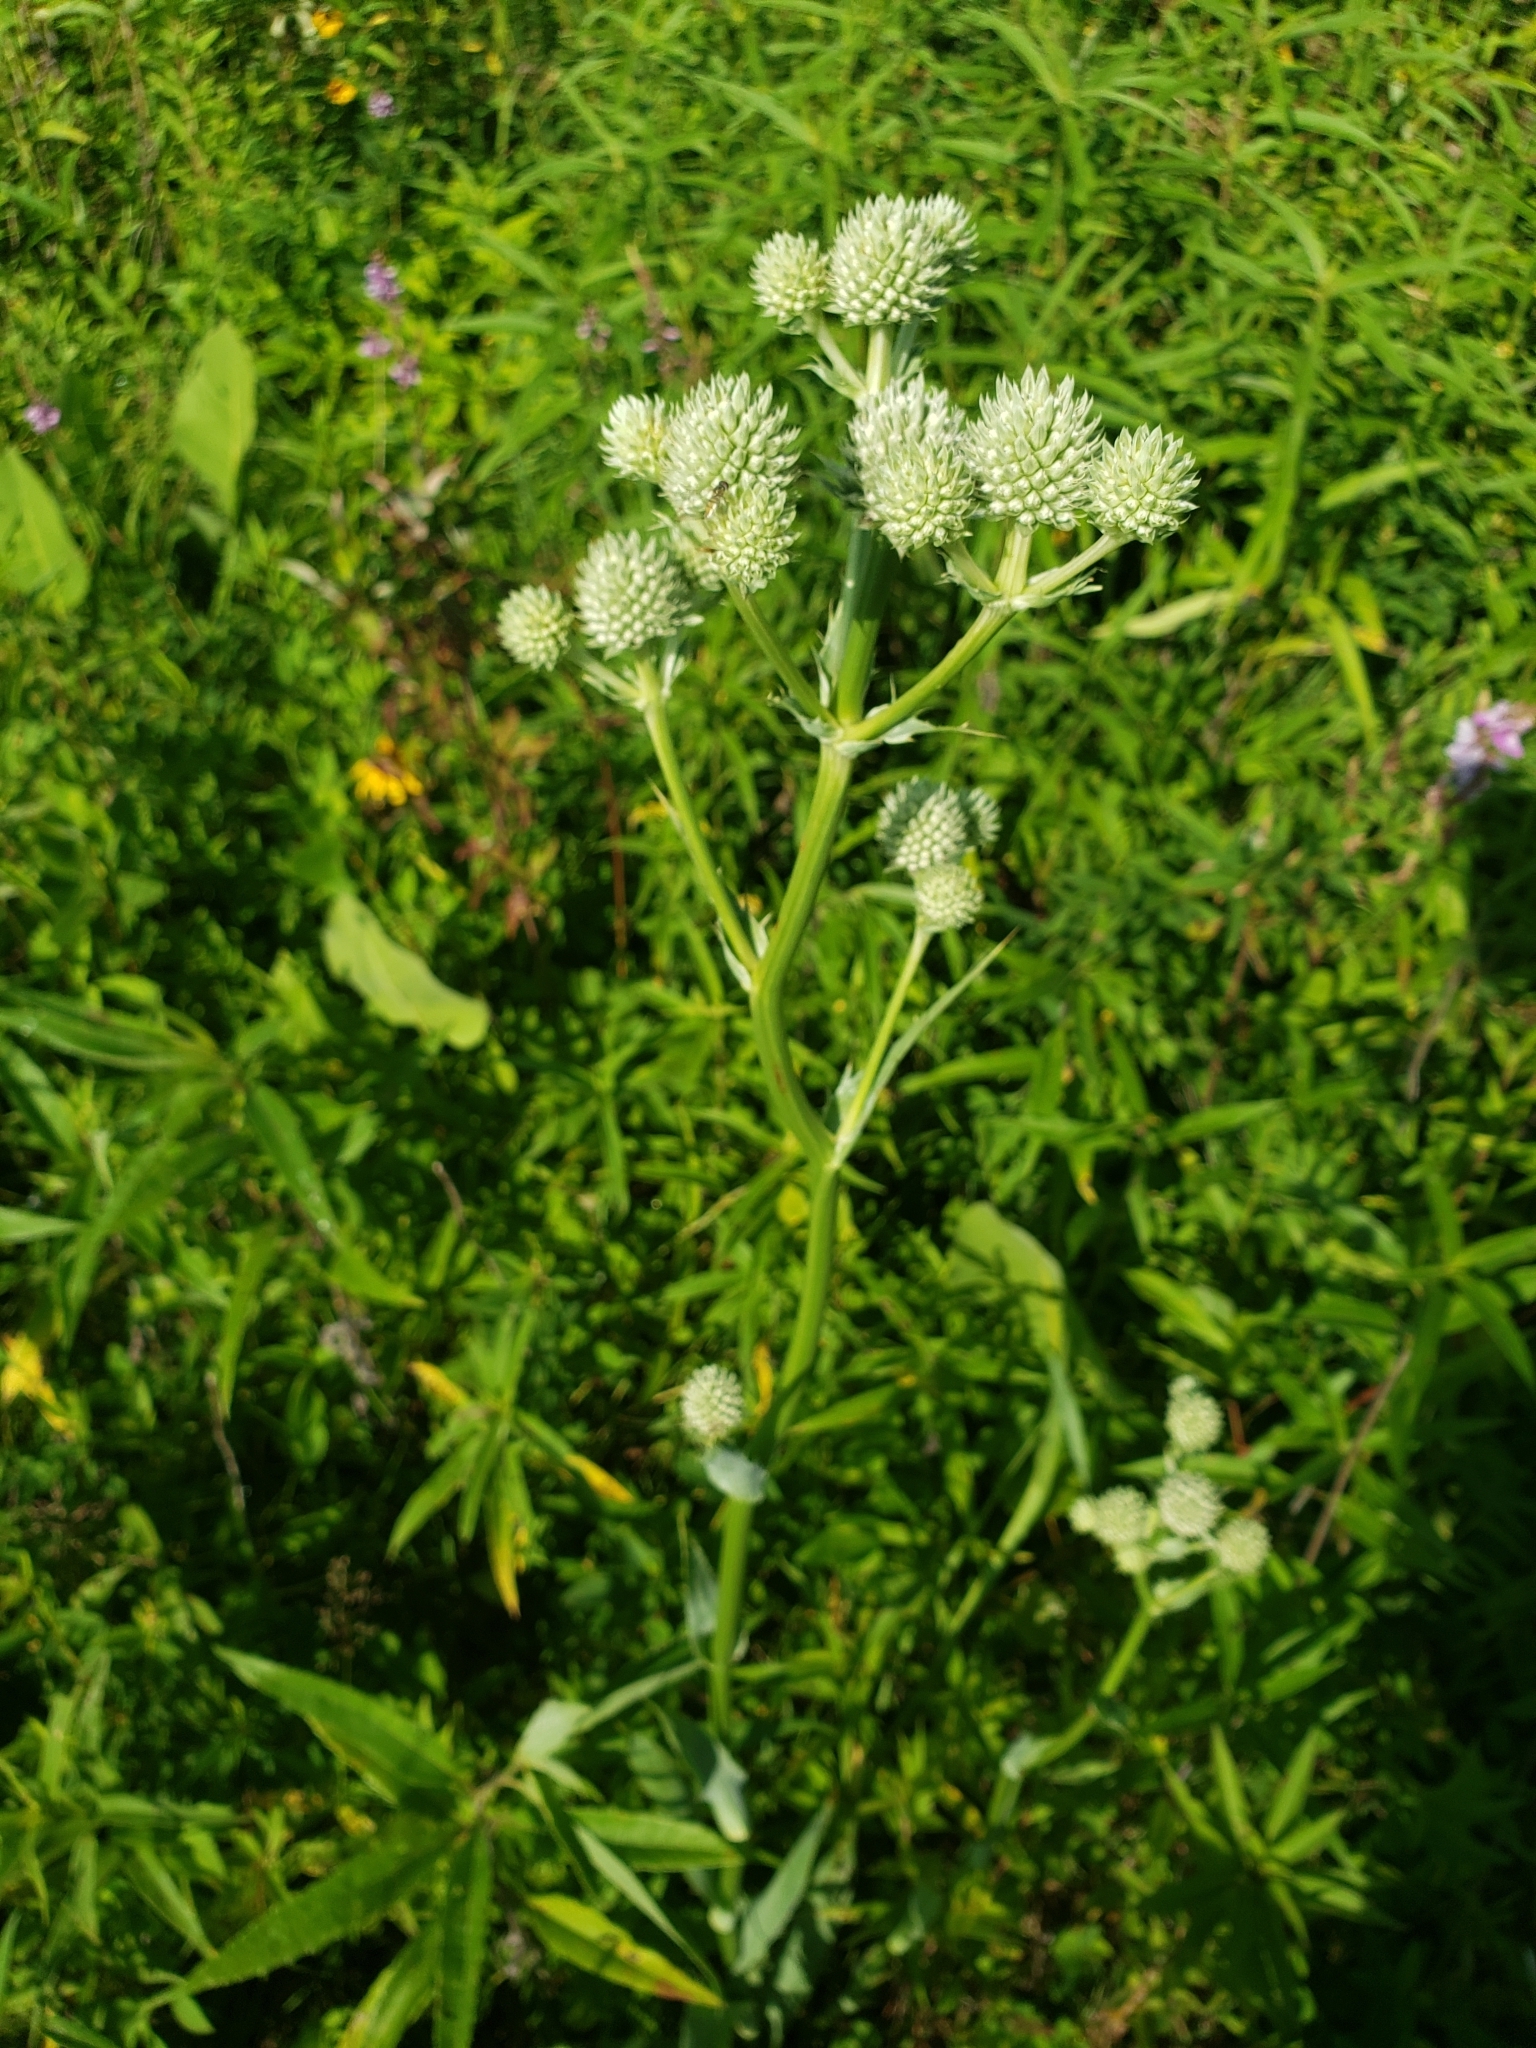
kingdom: Plantae
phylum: Tracheophyta
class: Magnoliopsida
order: Apiales
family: Apiaceae
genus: Eryngium
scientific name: Eryngium yuccifolium
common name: Button eryngo
